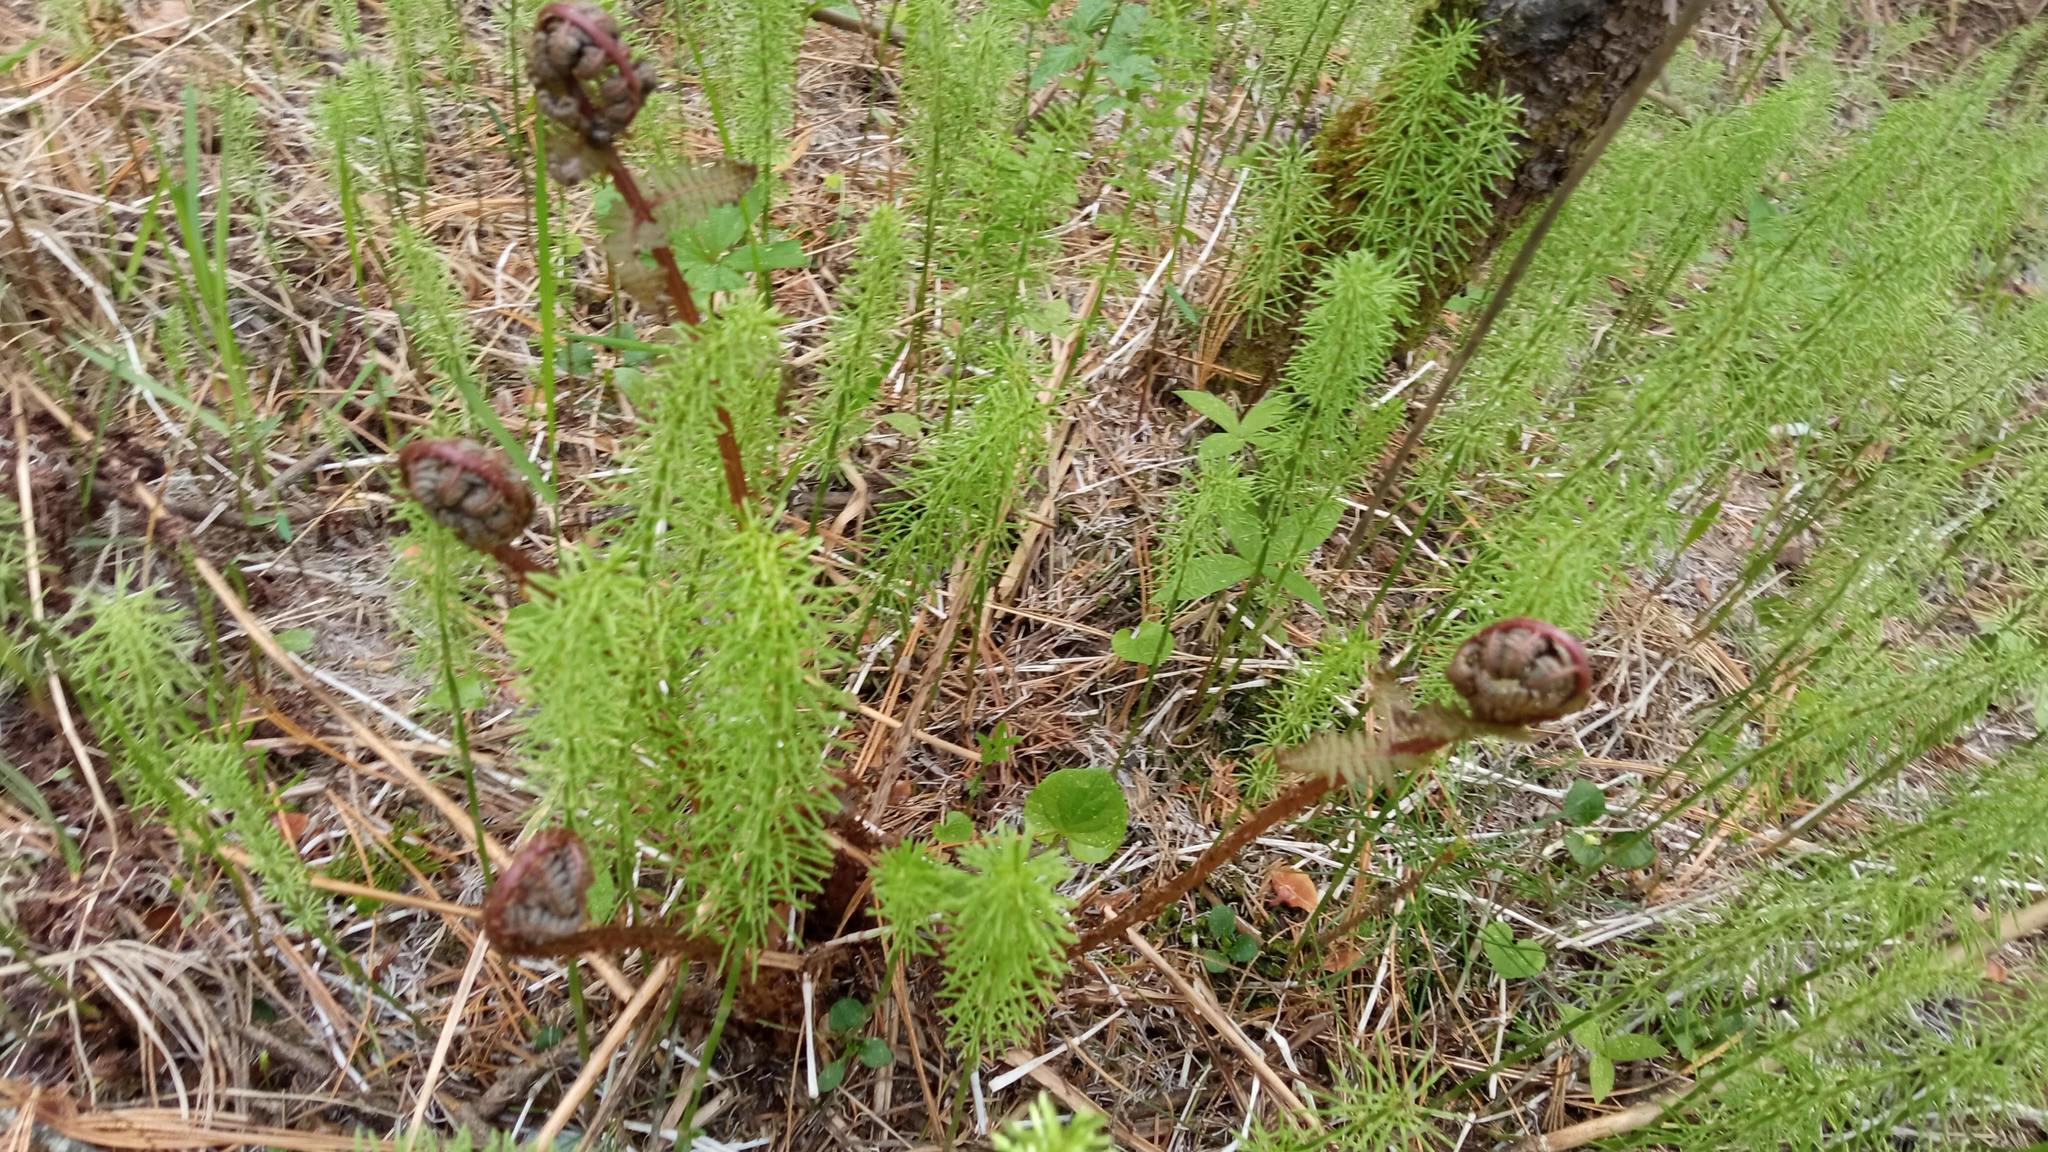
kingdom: Plantae
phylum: Tracheophyta
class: Polypodiopsida
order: Polypodiales
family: Athyriaceae
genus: Athyrium
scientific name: Athyrium filix-femina
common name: Lady fern
